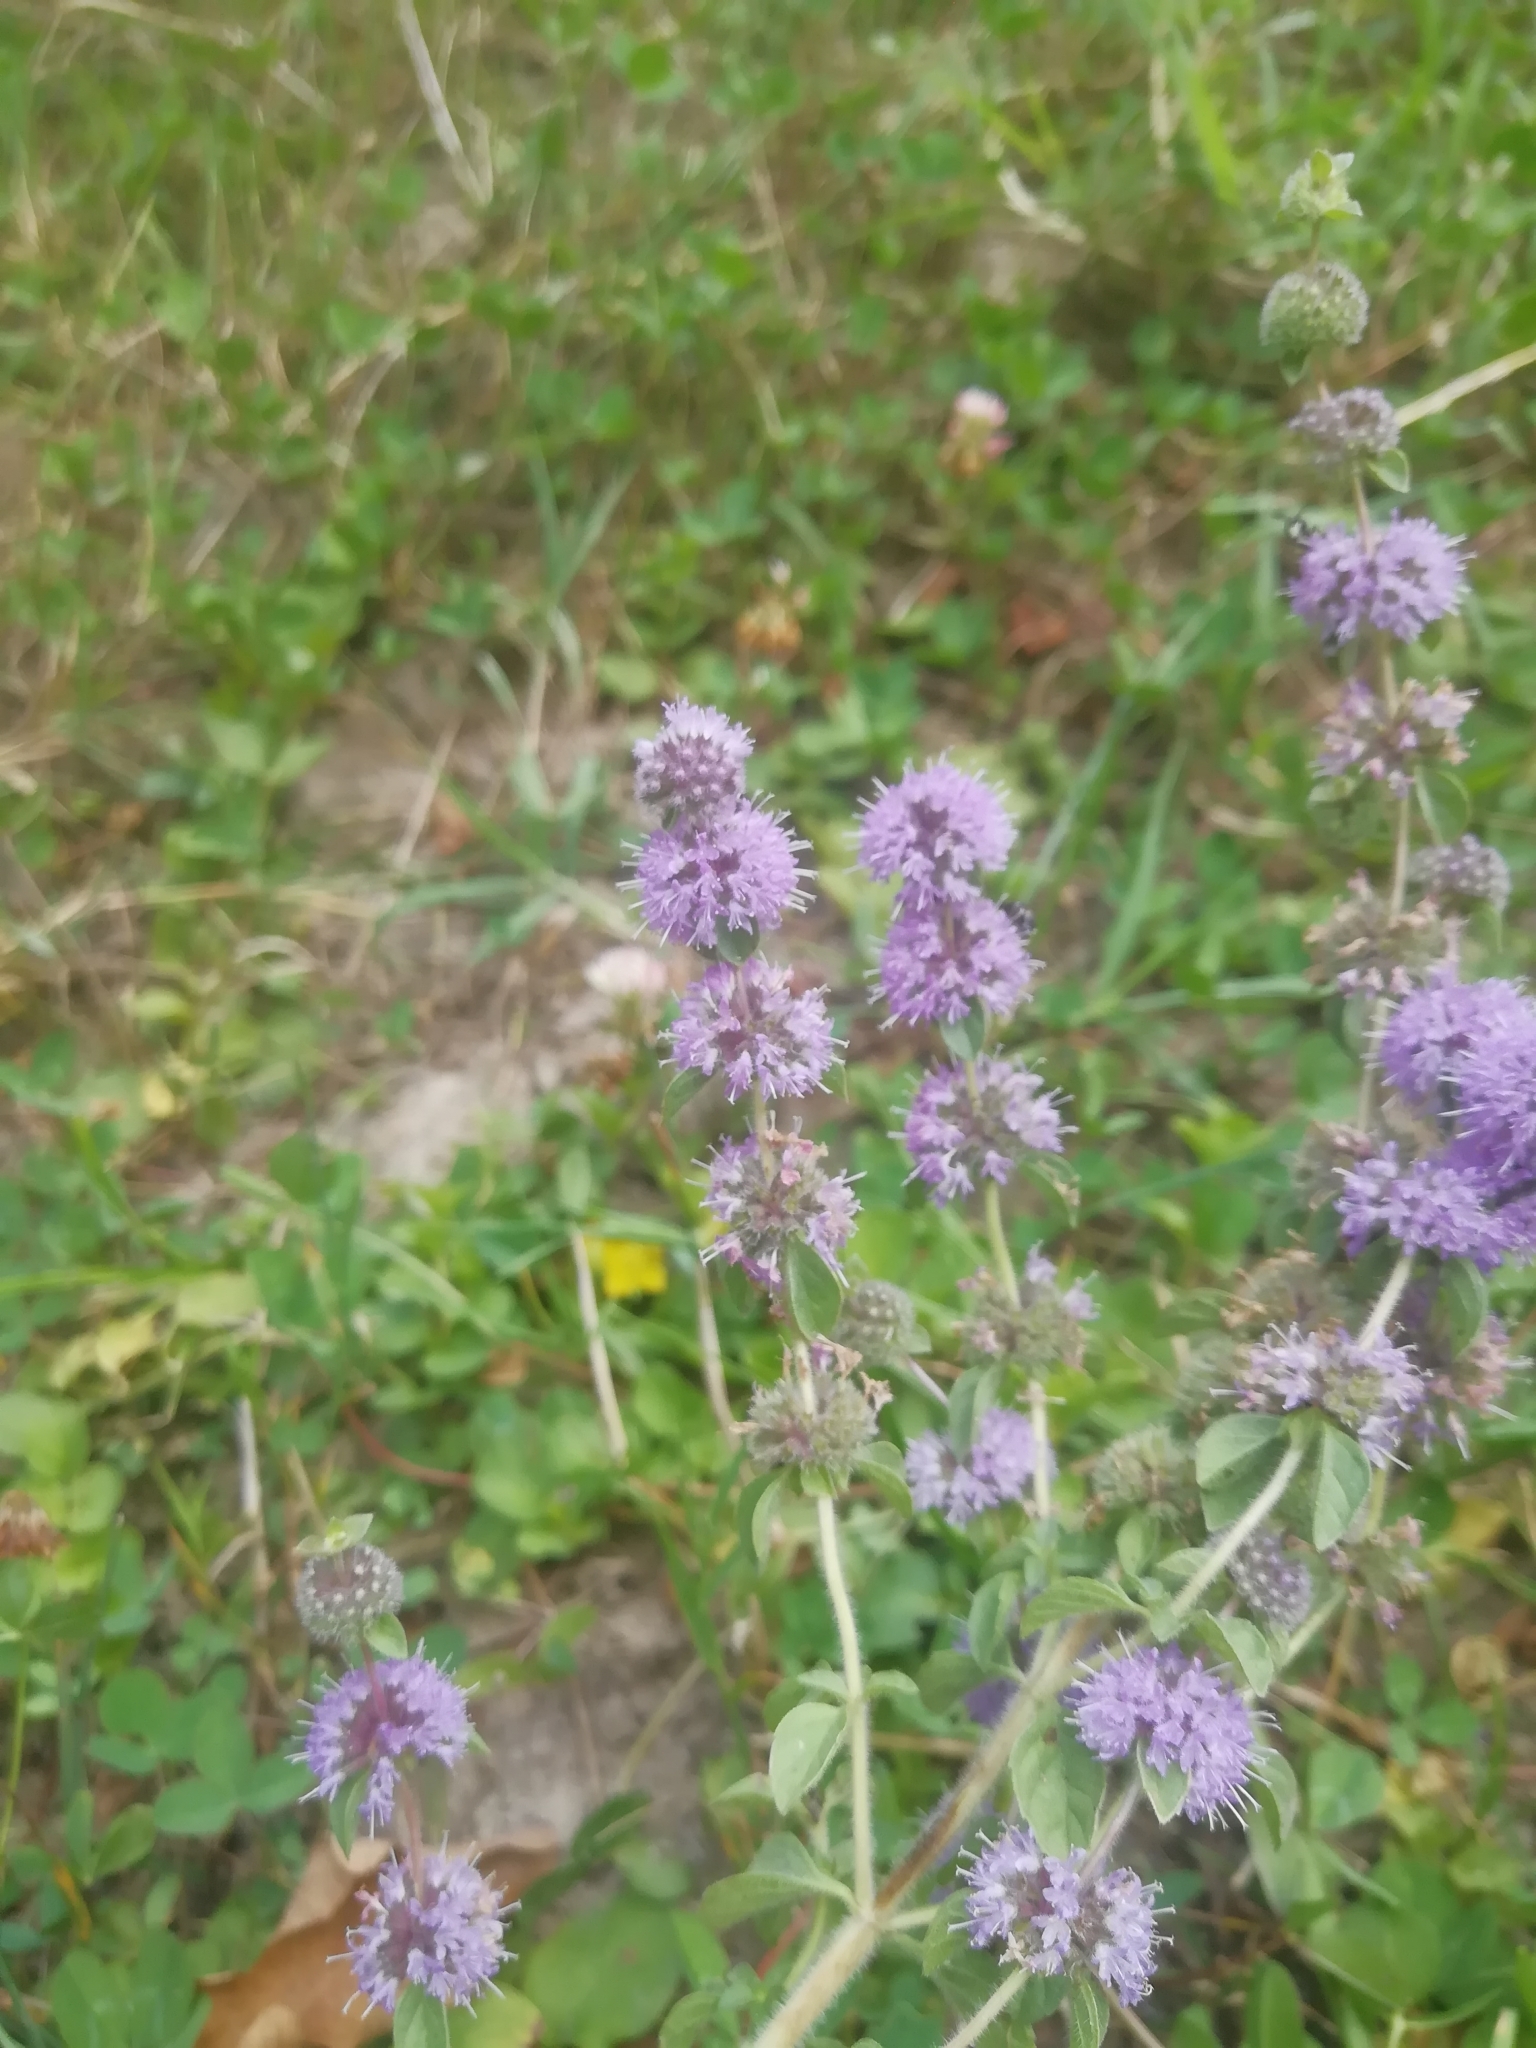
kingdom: Plantae
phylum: Tracheophyta
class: Magnoliopsida
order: Lamiales
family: Lamiaceae
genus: Mentha
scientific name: Mentha pulegium
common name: Pennyroyal
